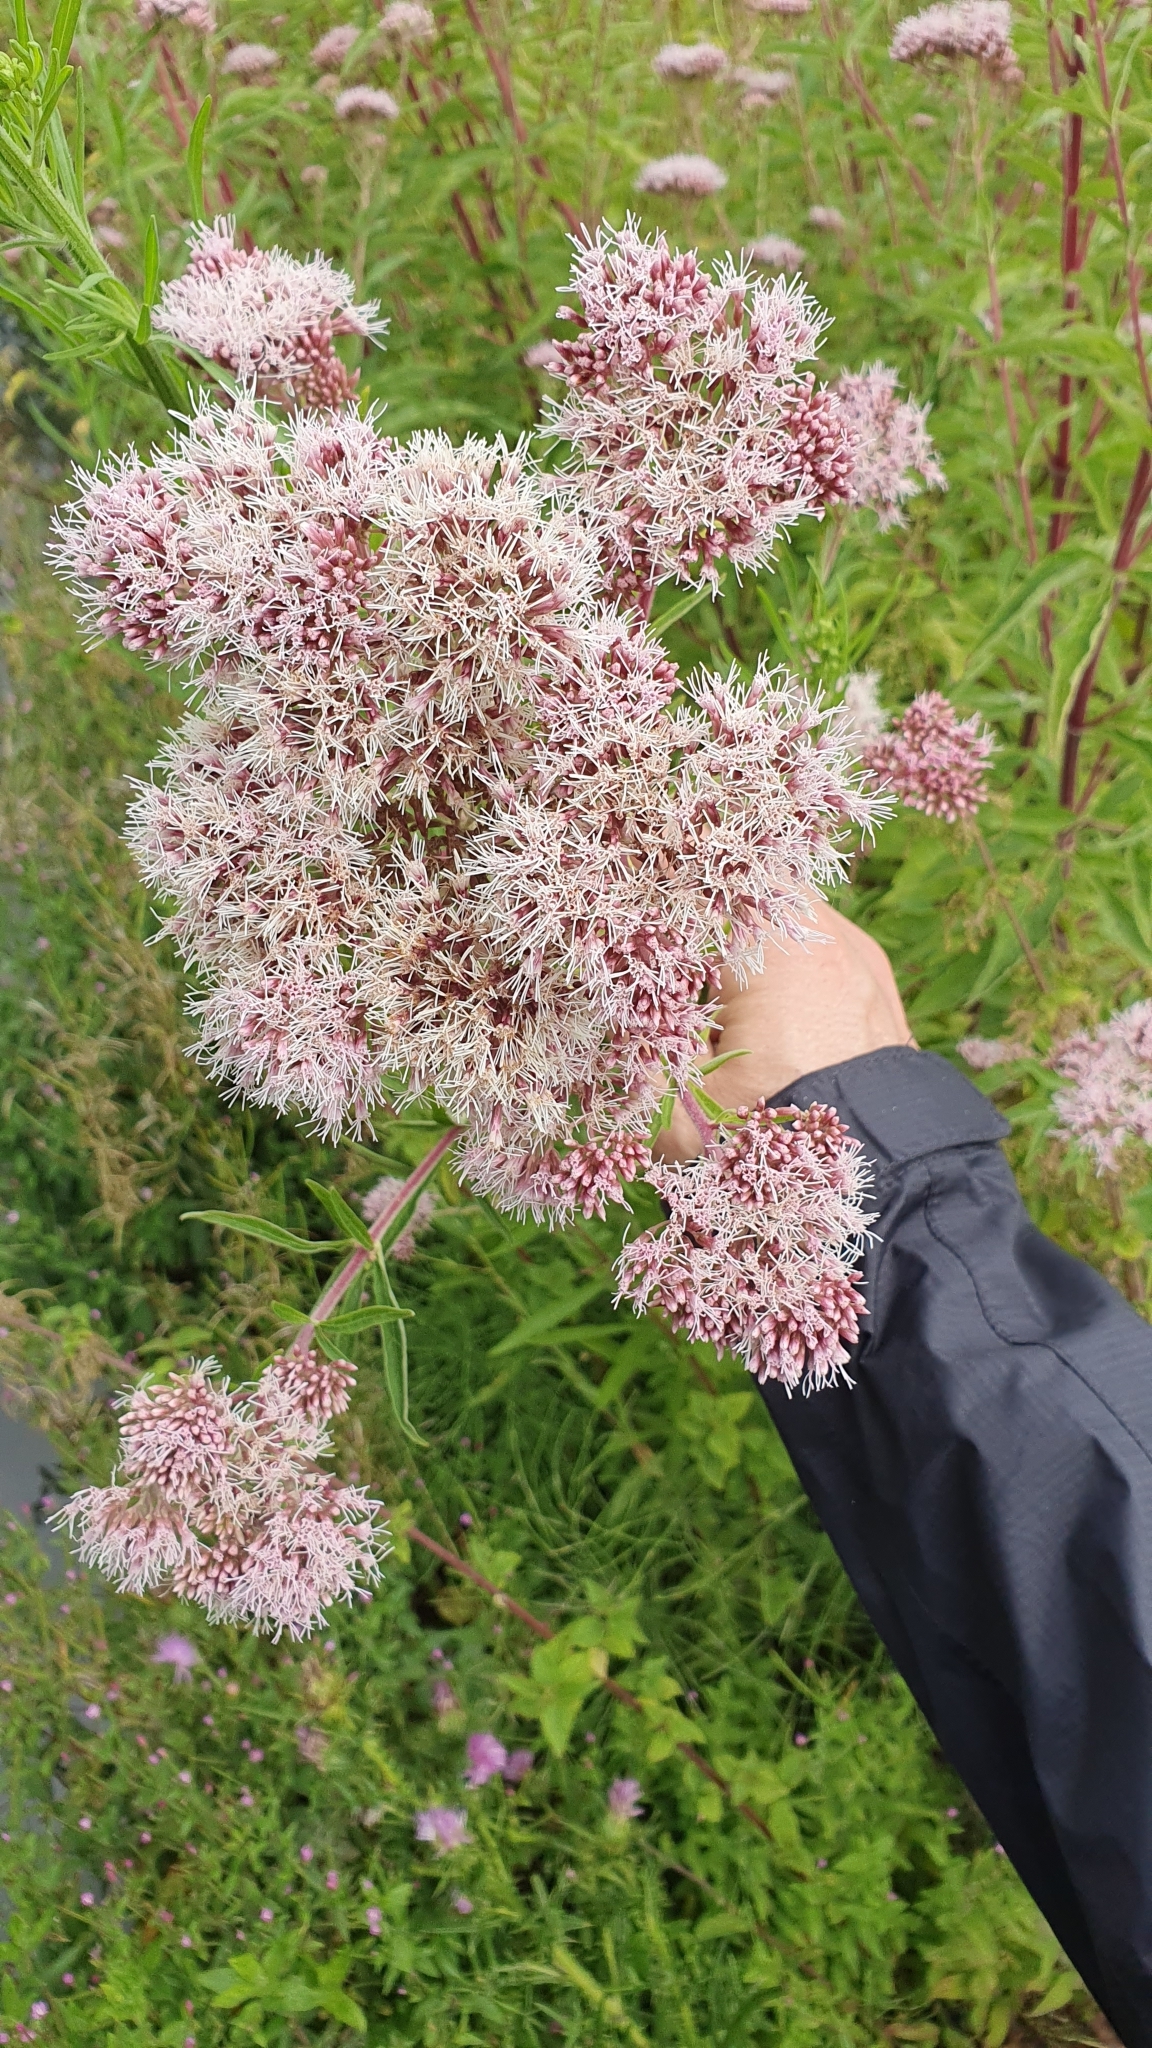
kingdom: Plantae
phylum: Tracheophyta
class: Magnoliopsida
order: Asterales
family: Asteraceae
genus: Eupatorium
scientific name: Eupatorium cannabinum
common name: Hemp-agrimony
